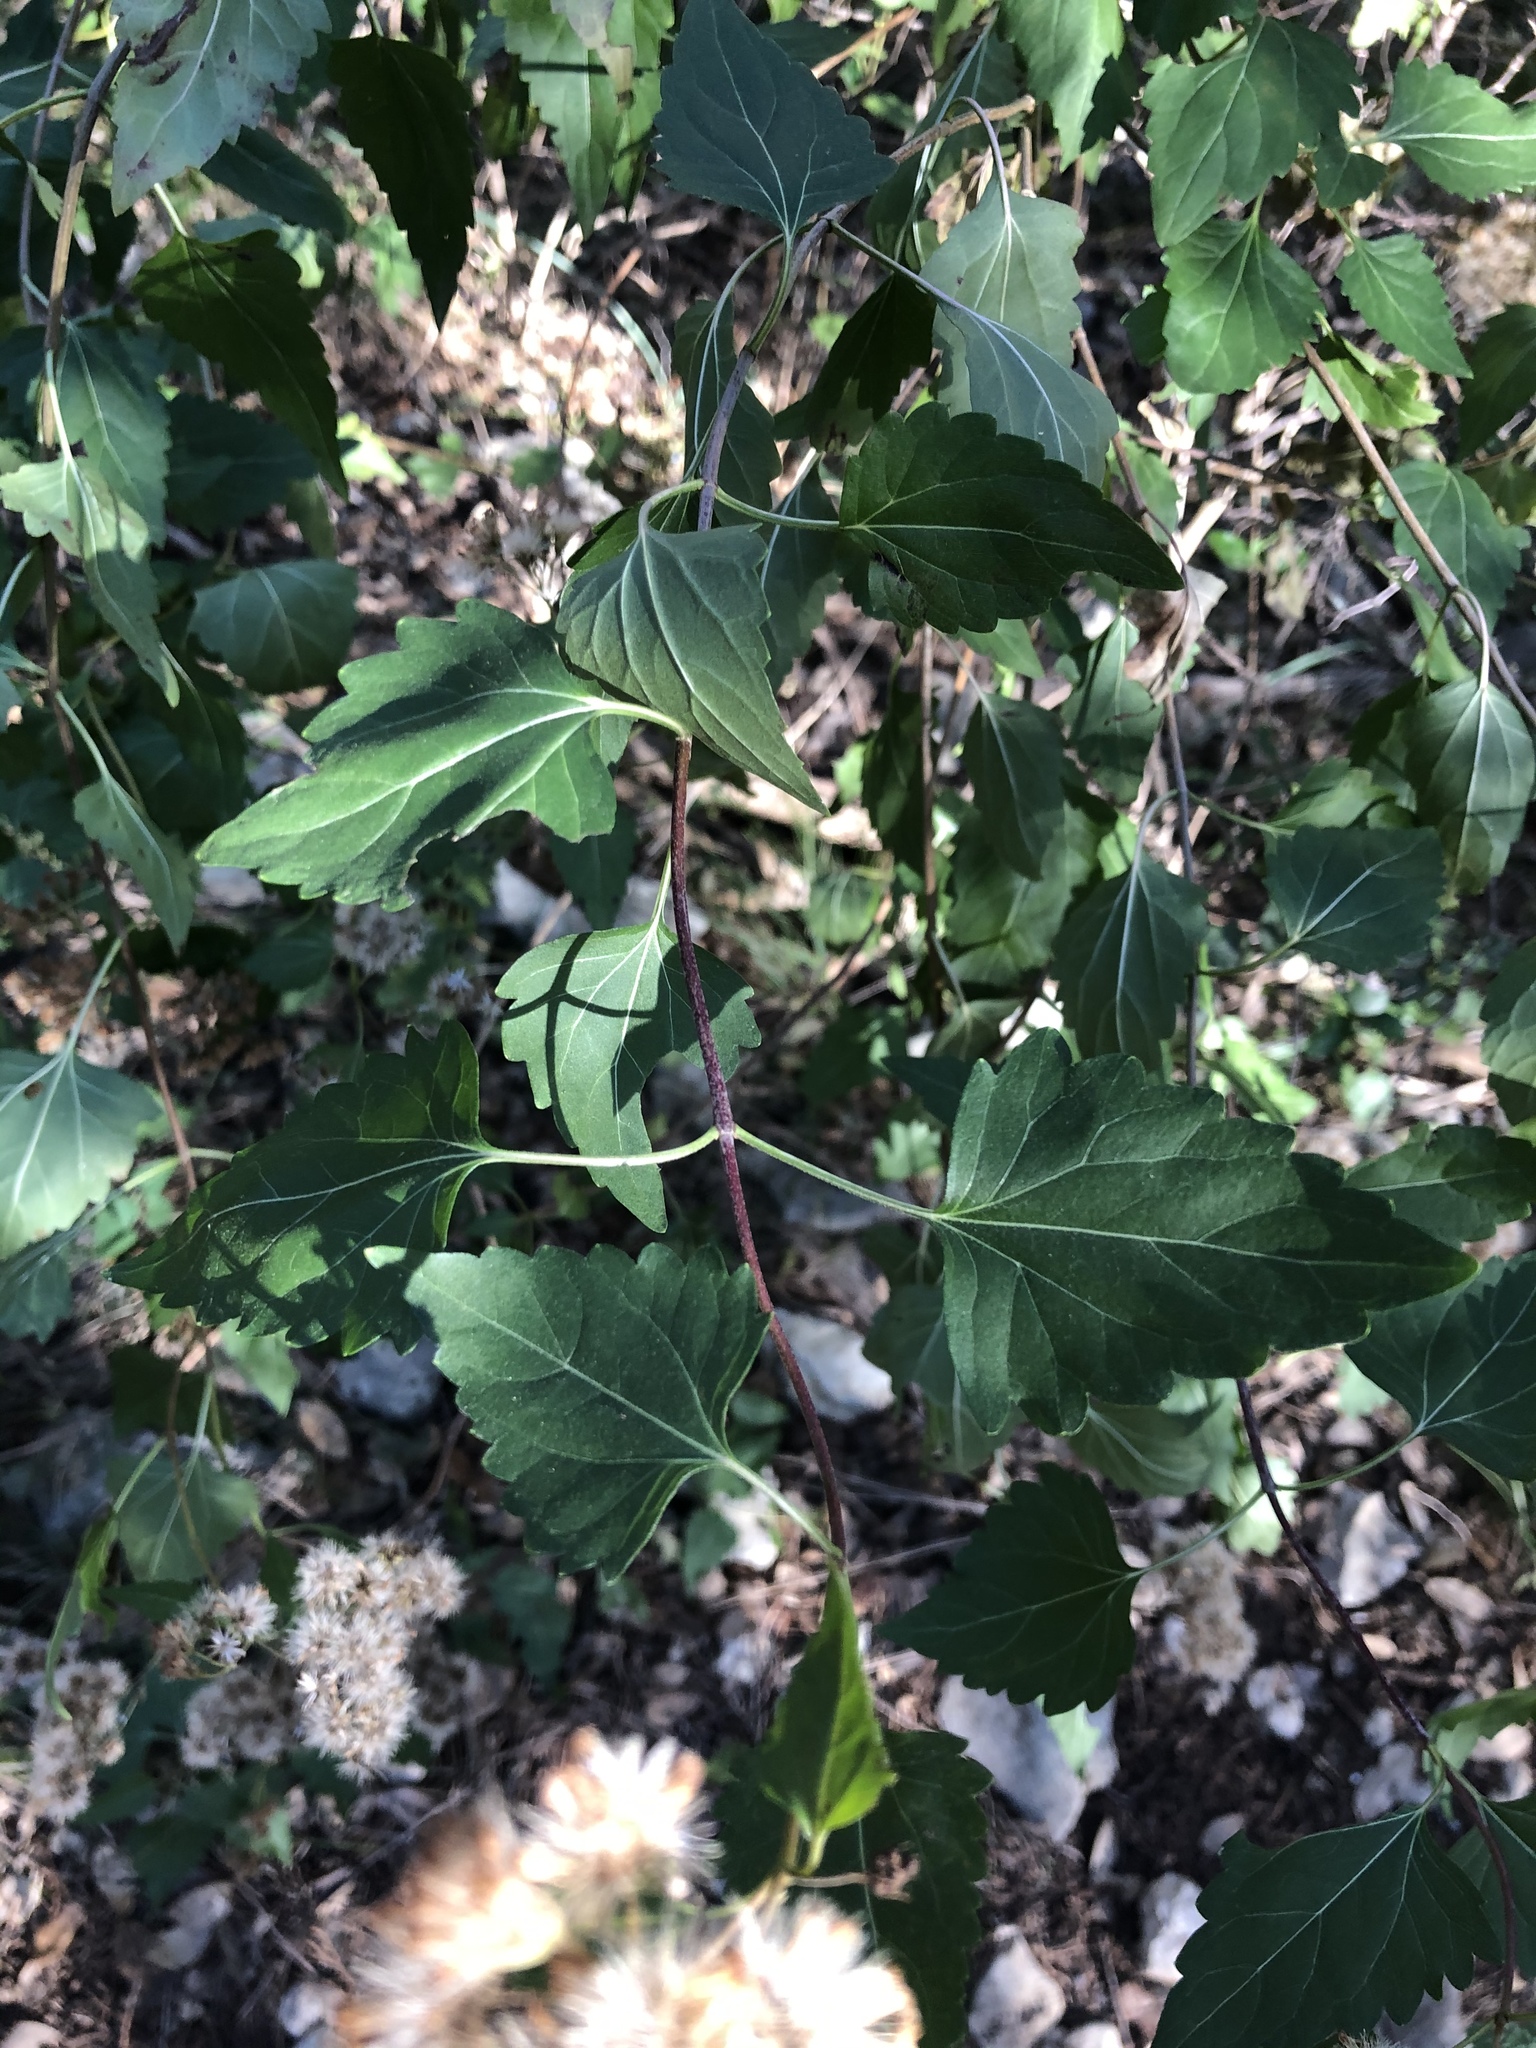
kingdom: Plantae
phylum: Tracheophyta
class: Magnoliopsida
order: Asterales
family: Asteraceae
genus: Ageratina
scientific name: Ageratina havanensis
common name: Havana snakeroot
